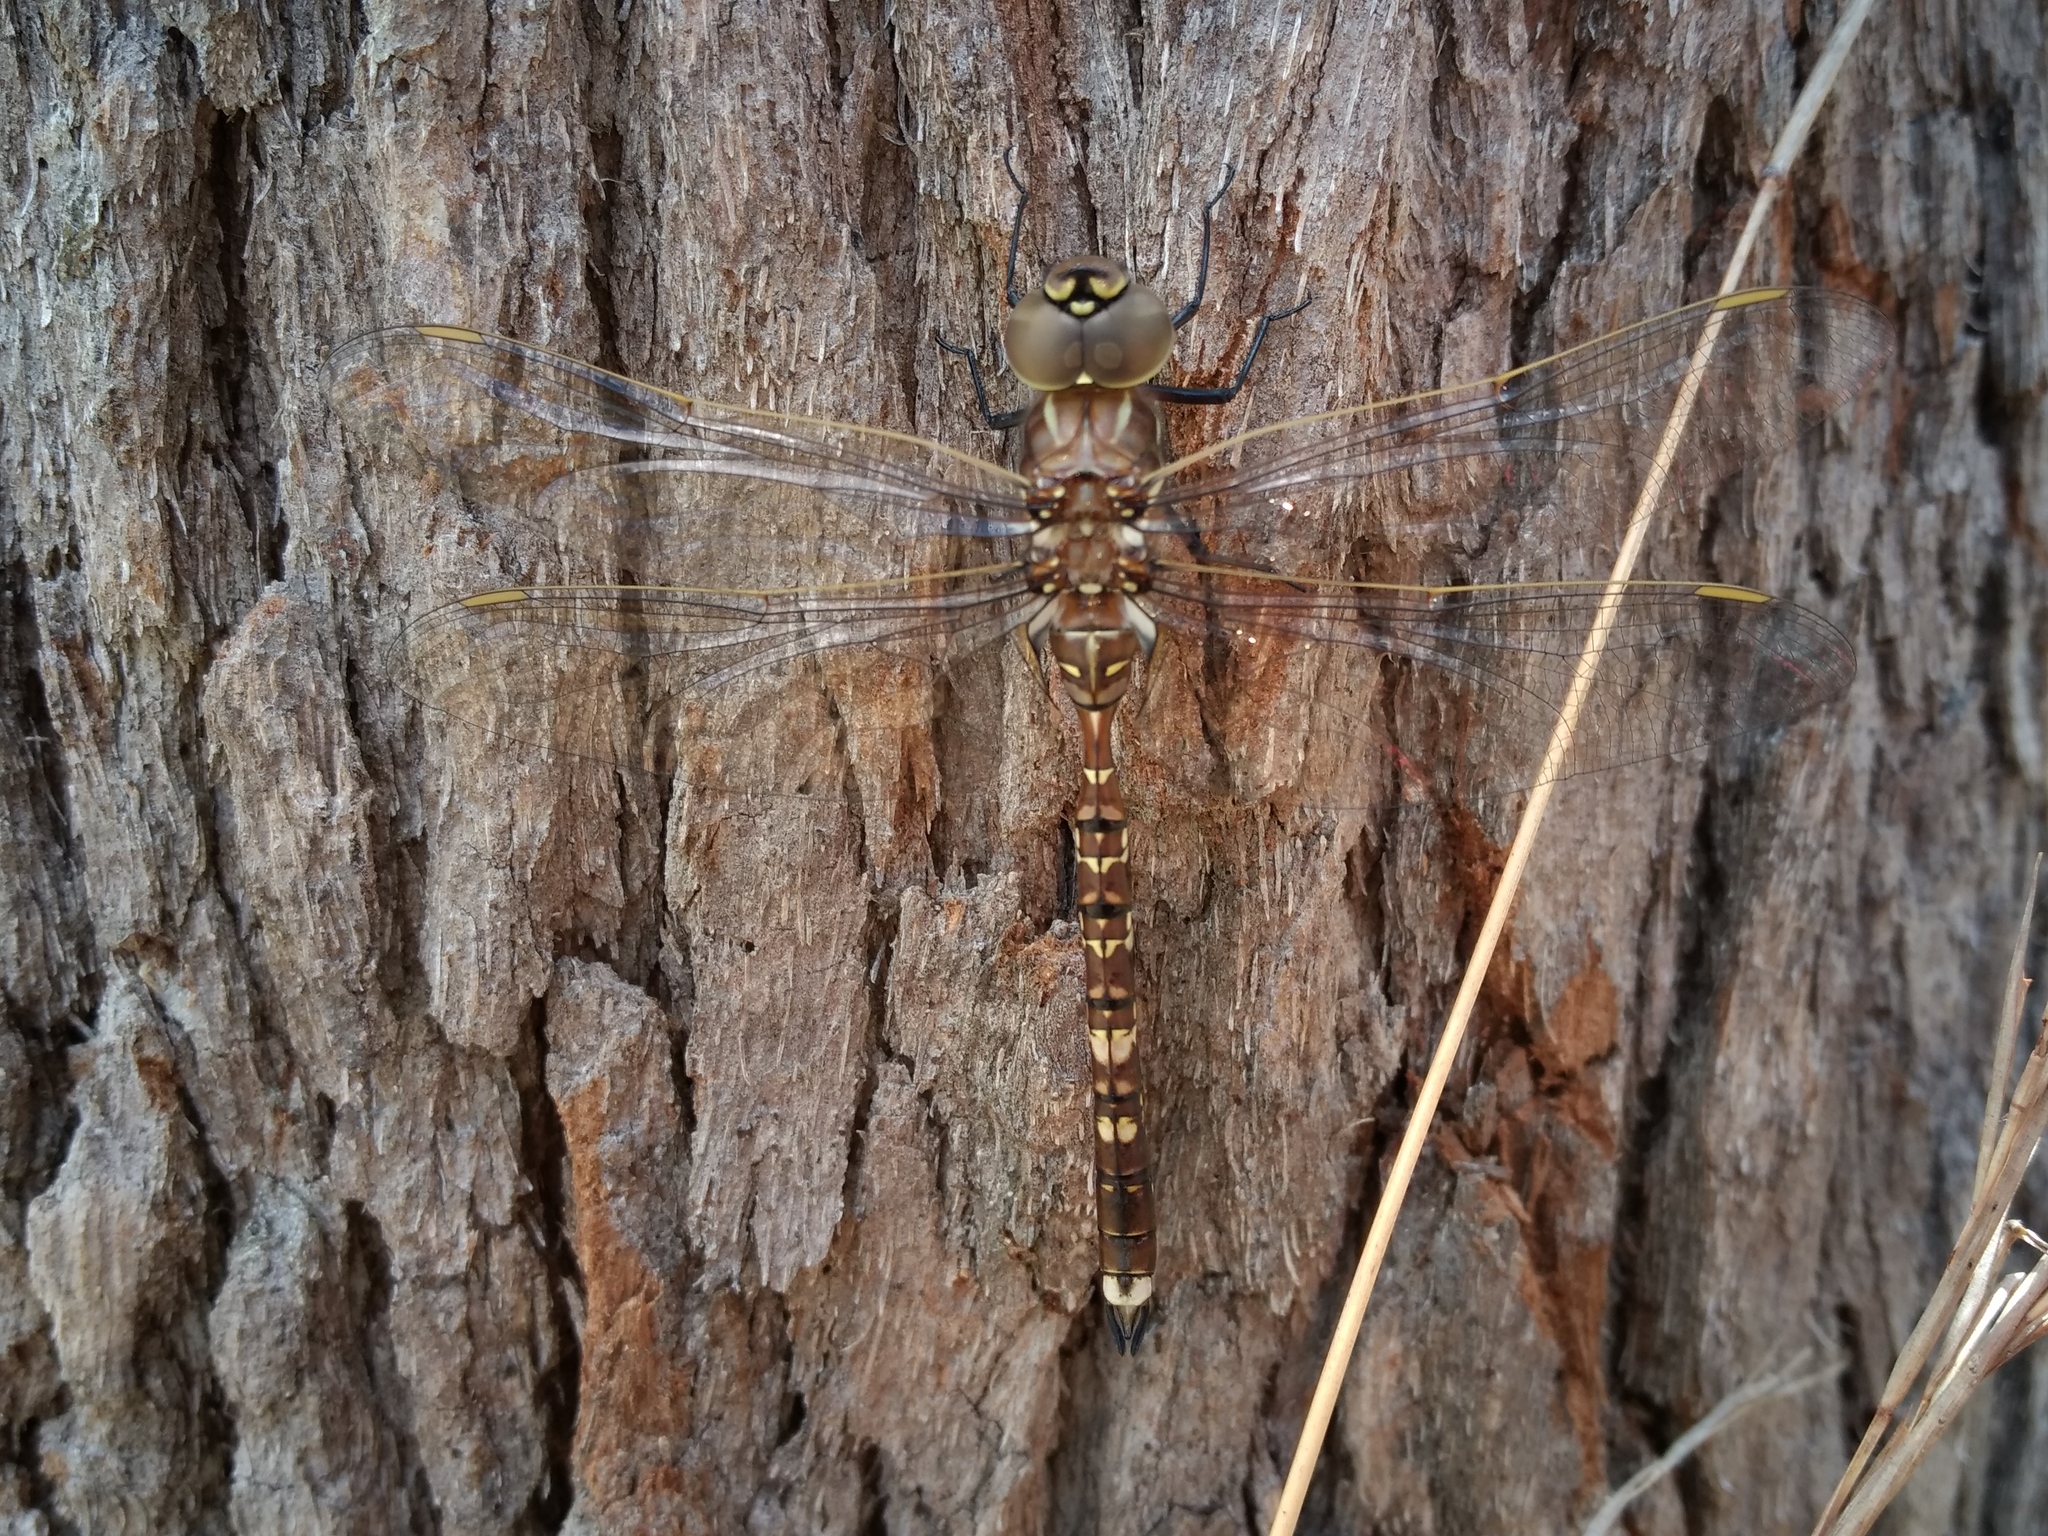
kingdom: Animalia
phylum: Arthropoda
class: Insecta
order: Odonata
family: Aeshnidae
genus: Aeshna
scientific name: Aeshna brevistyla
